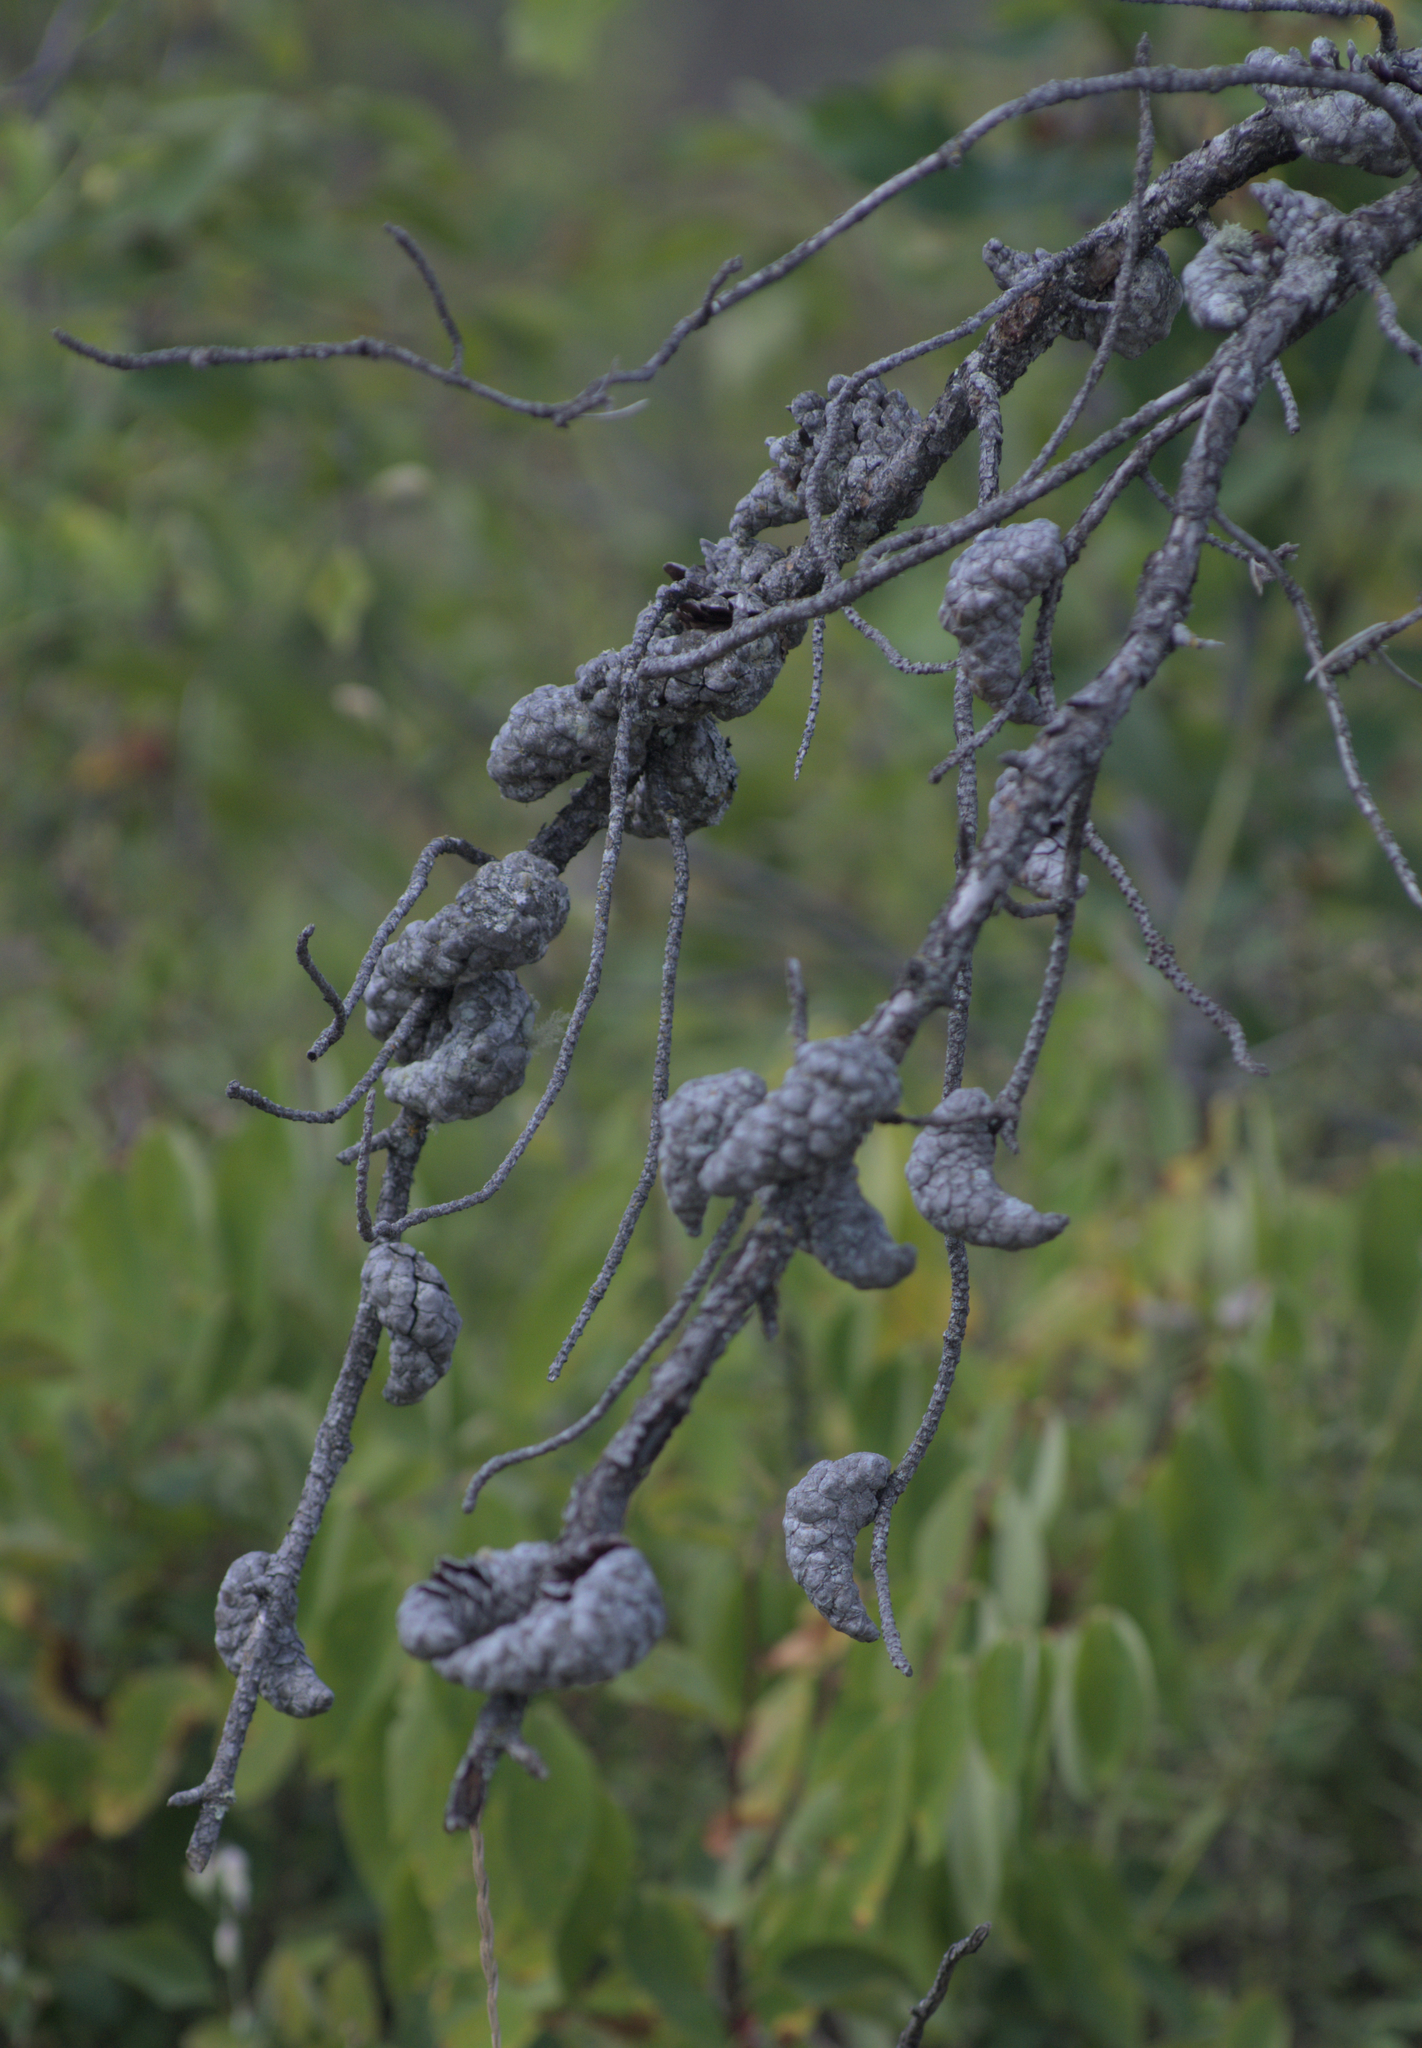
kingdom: Plantae
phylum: Tracheophyta
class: Pinopsida
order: Pinales
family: Pinaceae
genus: Pinus
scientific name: Pinus banksiana
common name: Jack pine
